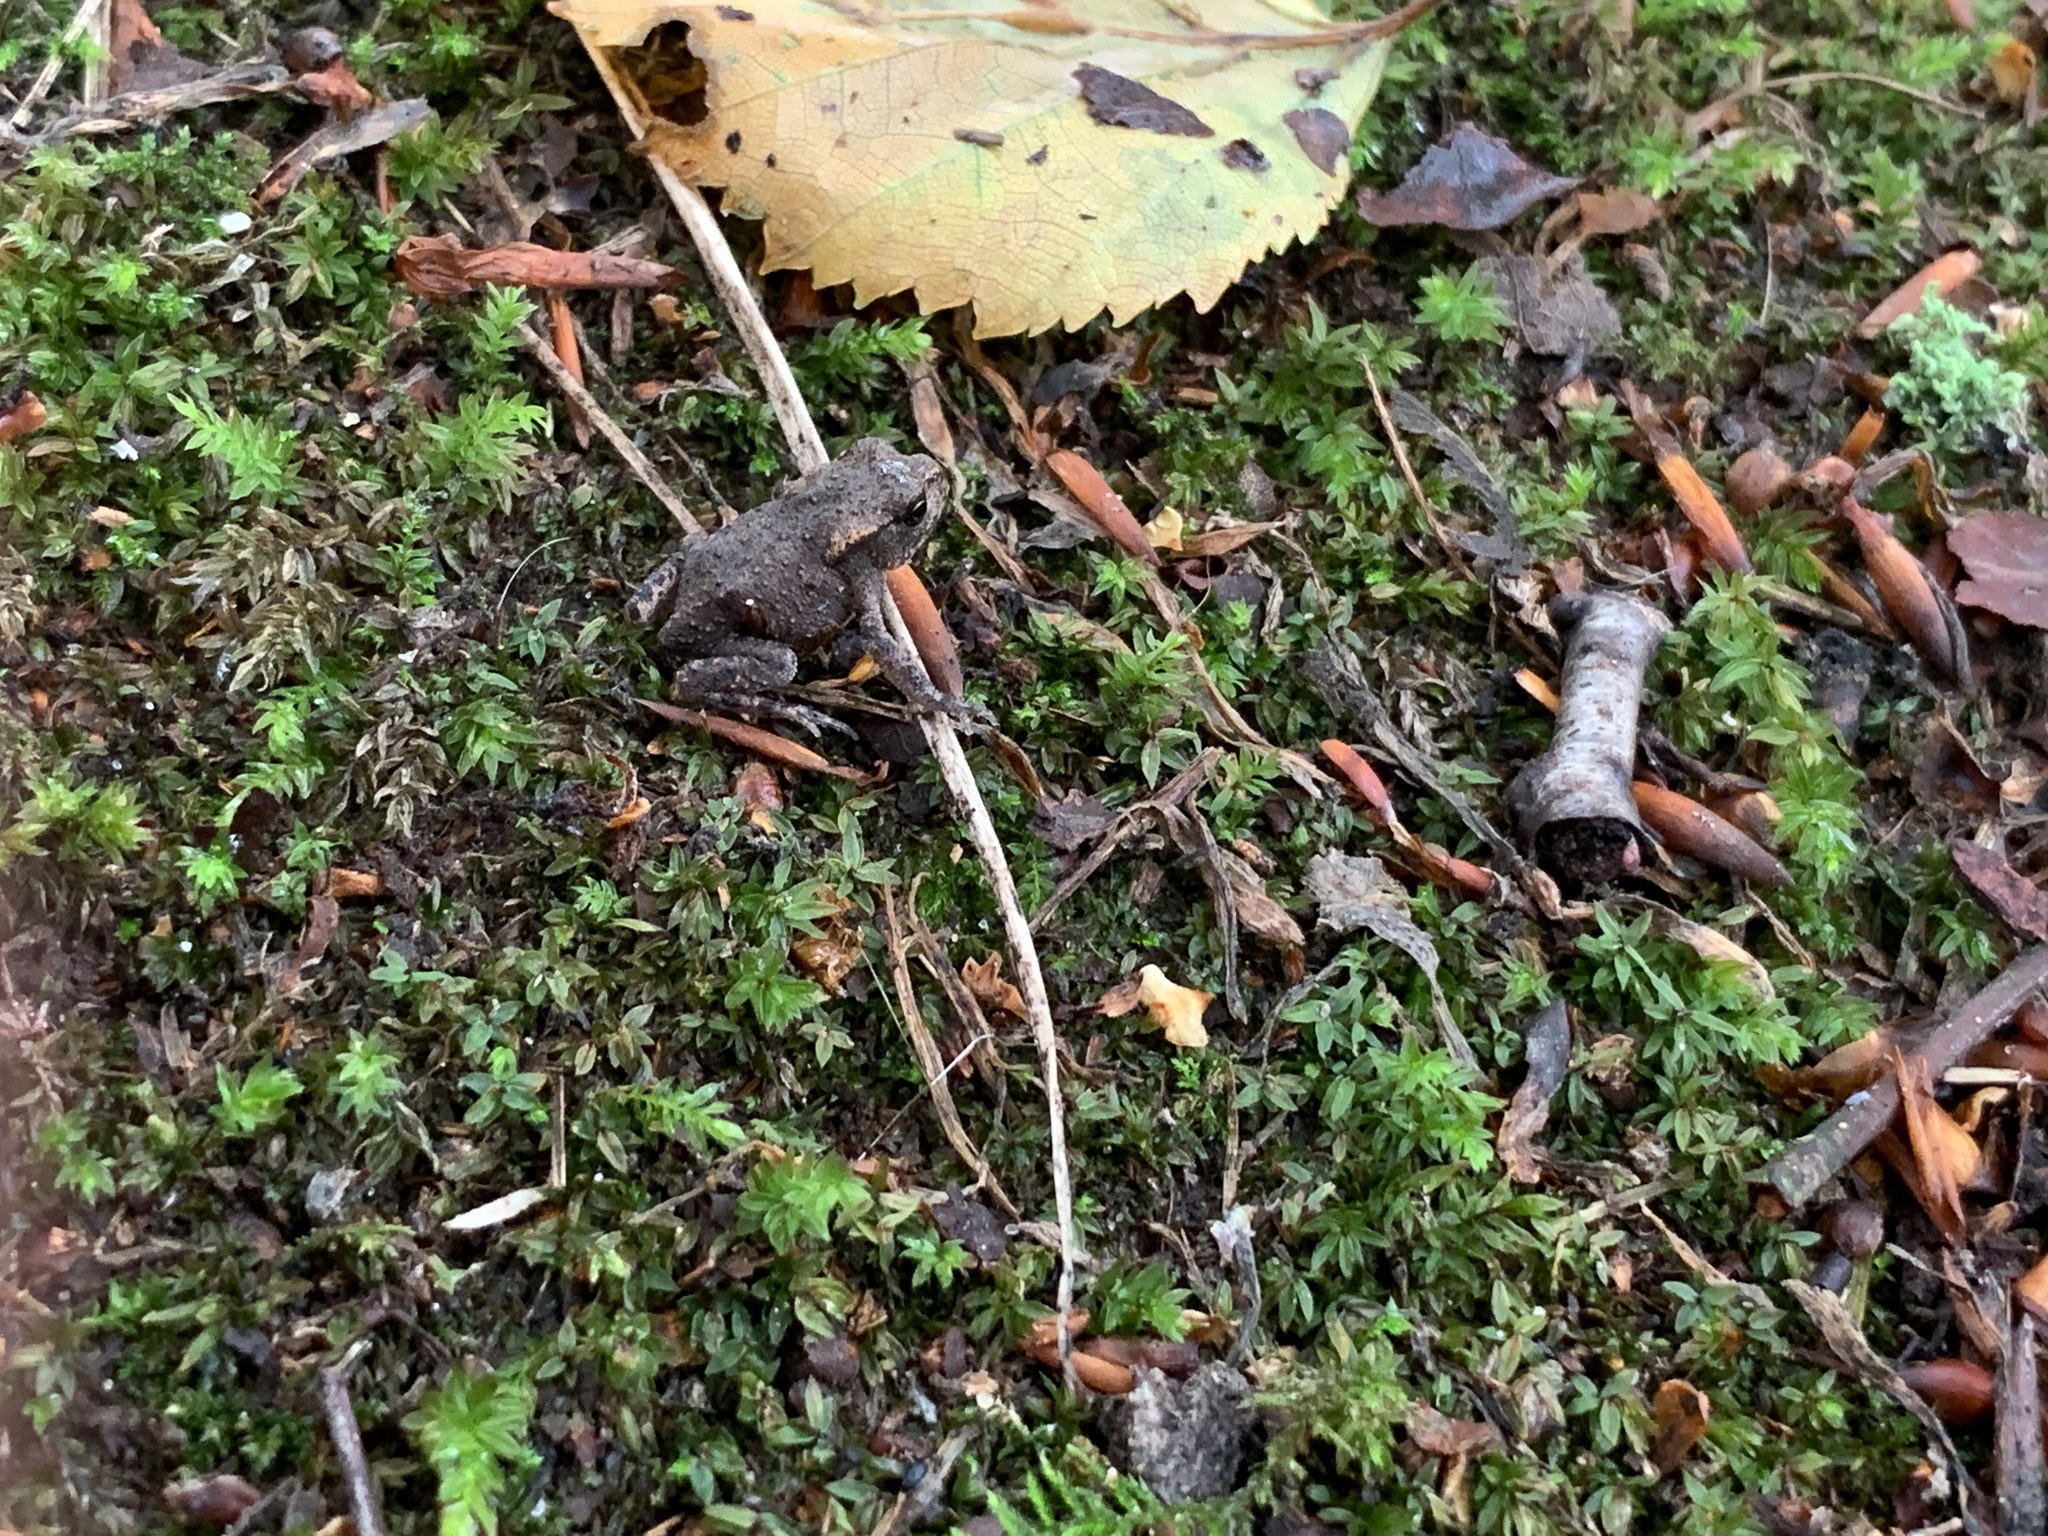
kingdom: Animalia
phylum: Chordata
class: Amphibia
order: Anura
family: Bufonidae
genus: Bufo
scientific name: Bufo bufo
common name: Common toad
